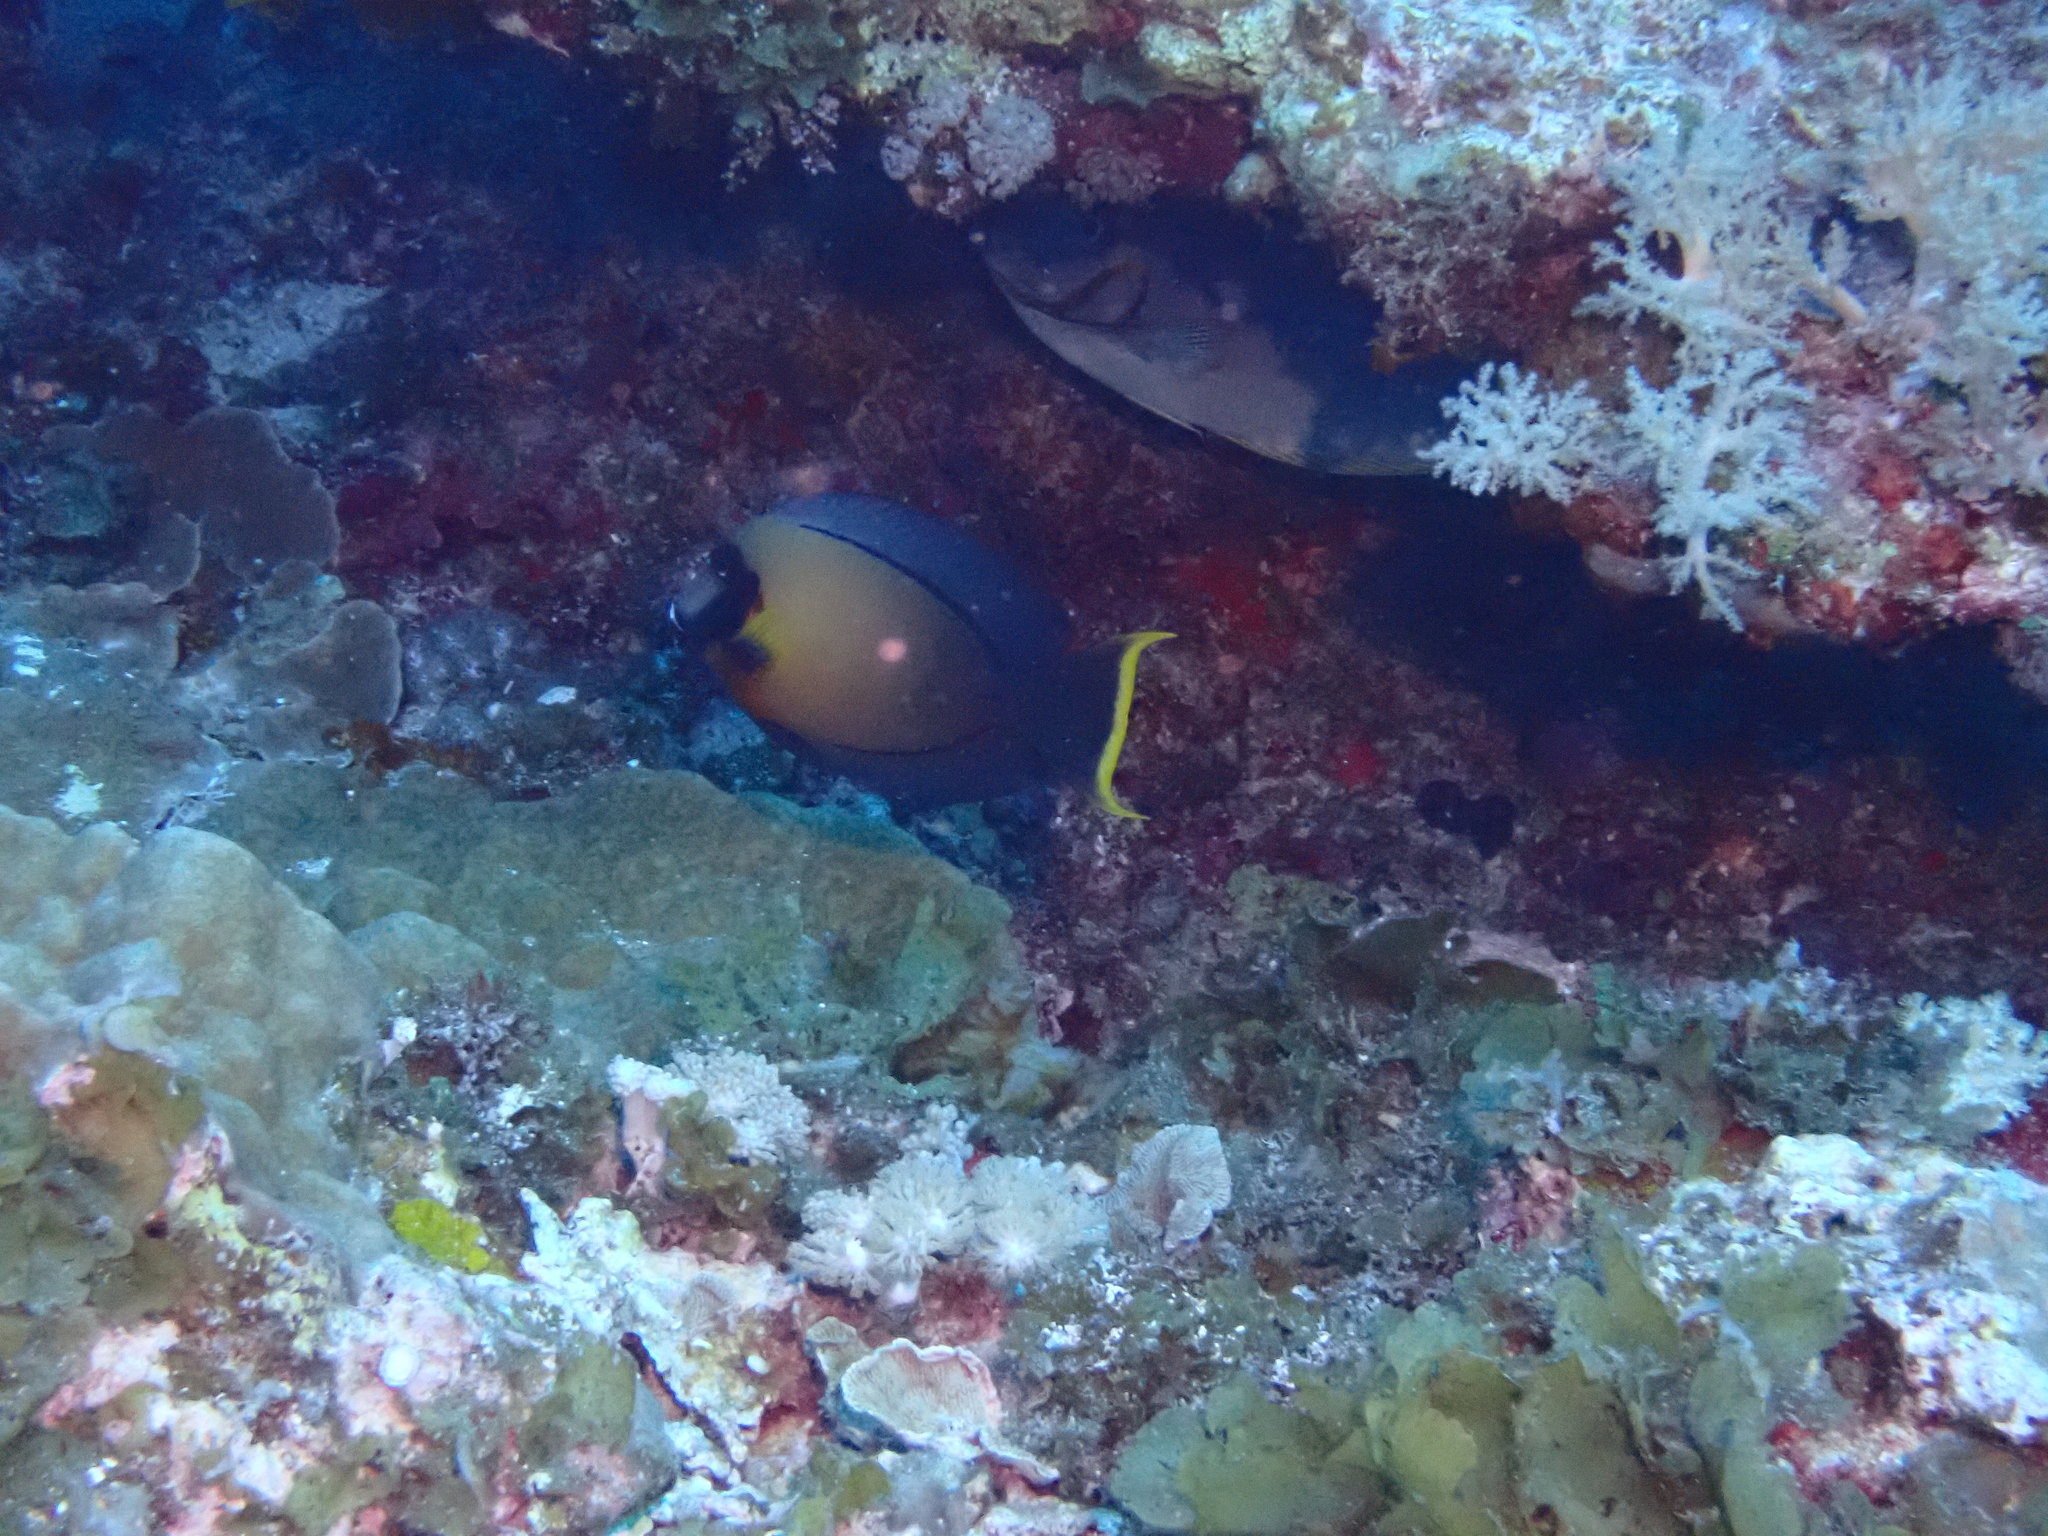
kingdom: Animalia
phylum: Chordata
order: Perciformes
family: Acanthuridae
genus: Acanthurus
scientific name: Acanthurus pyroferus
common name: Chocolate surgeonfish
